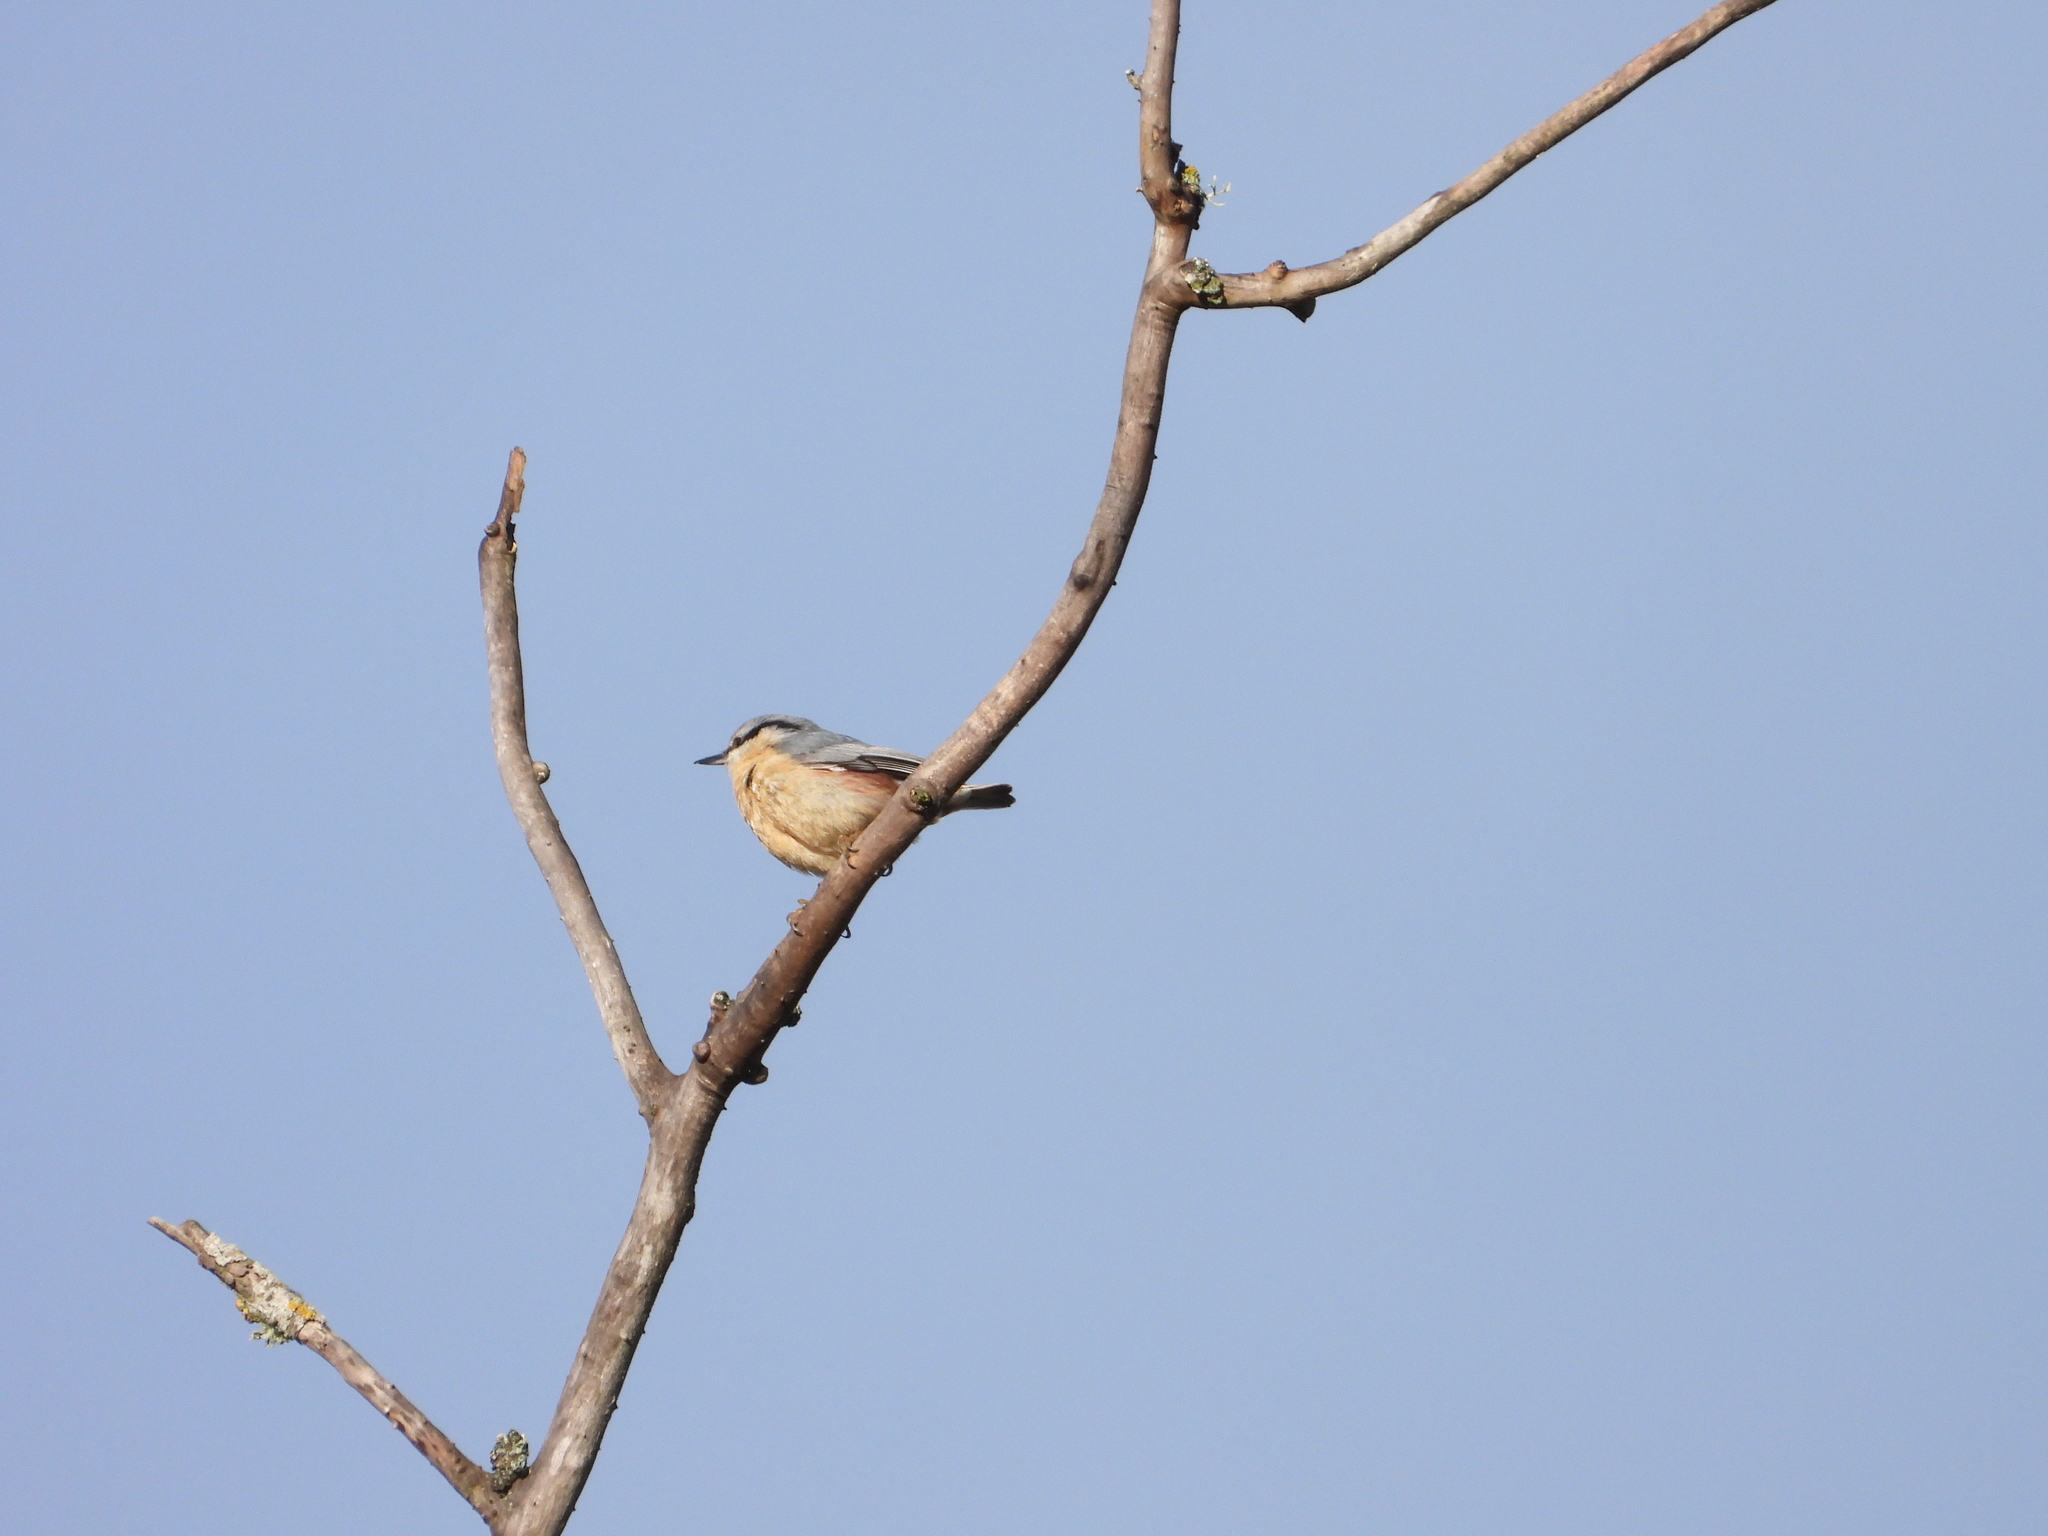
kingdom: Animalia
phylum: Chordata
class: Aves
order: Passeriformes
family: Sittidae
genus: Sitta
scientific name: Sitta europaea
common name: Eurasian nuthatch
